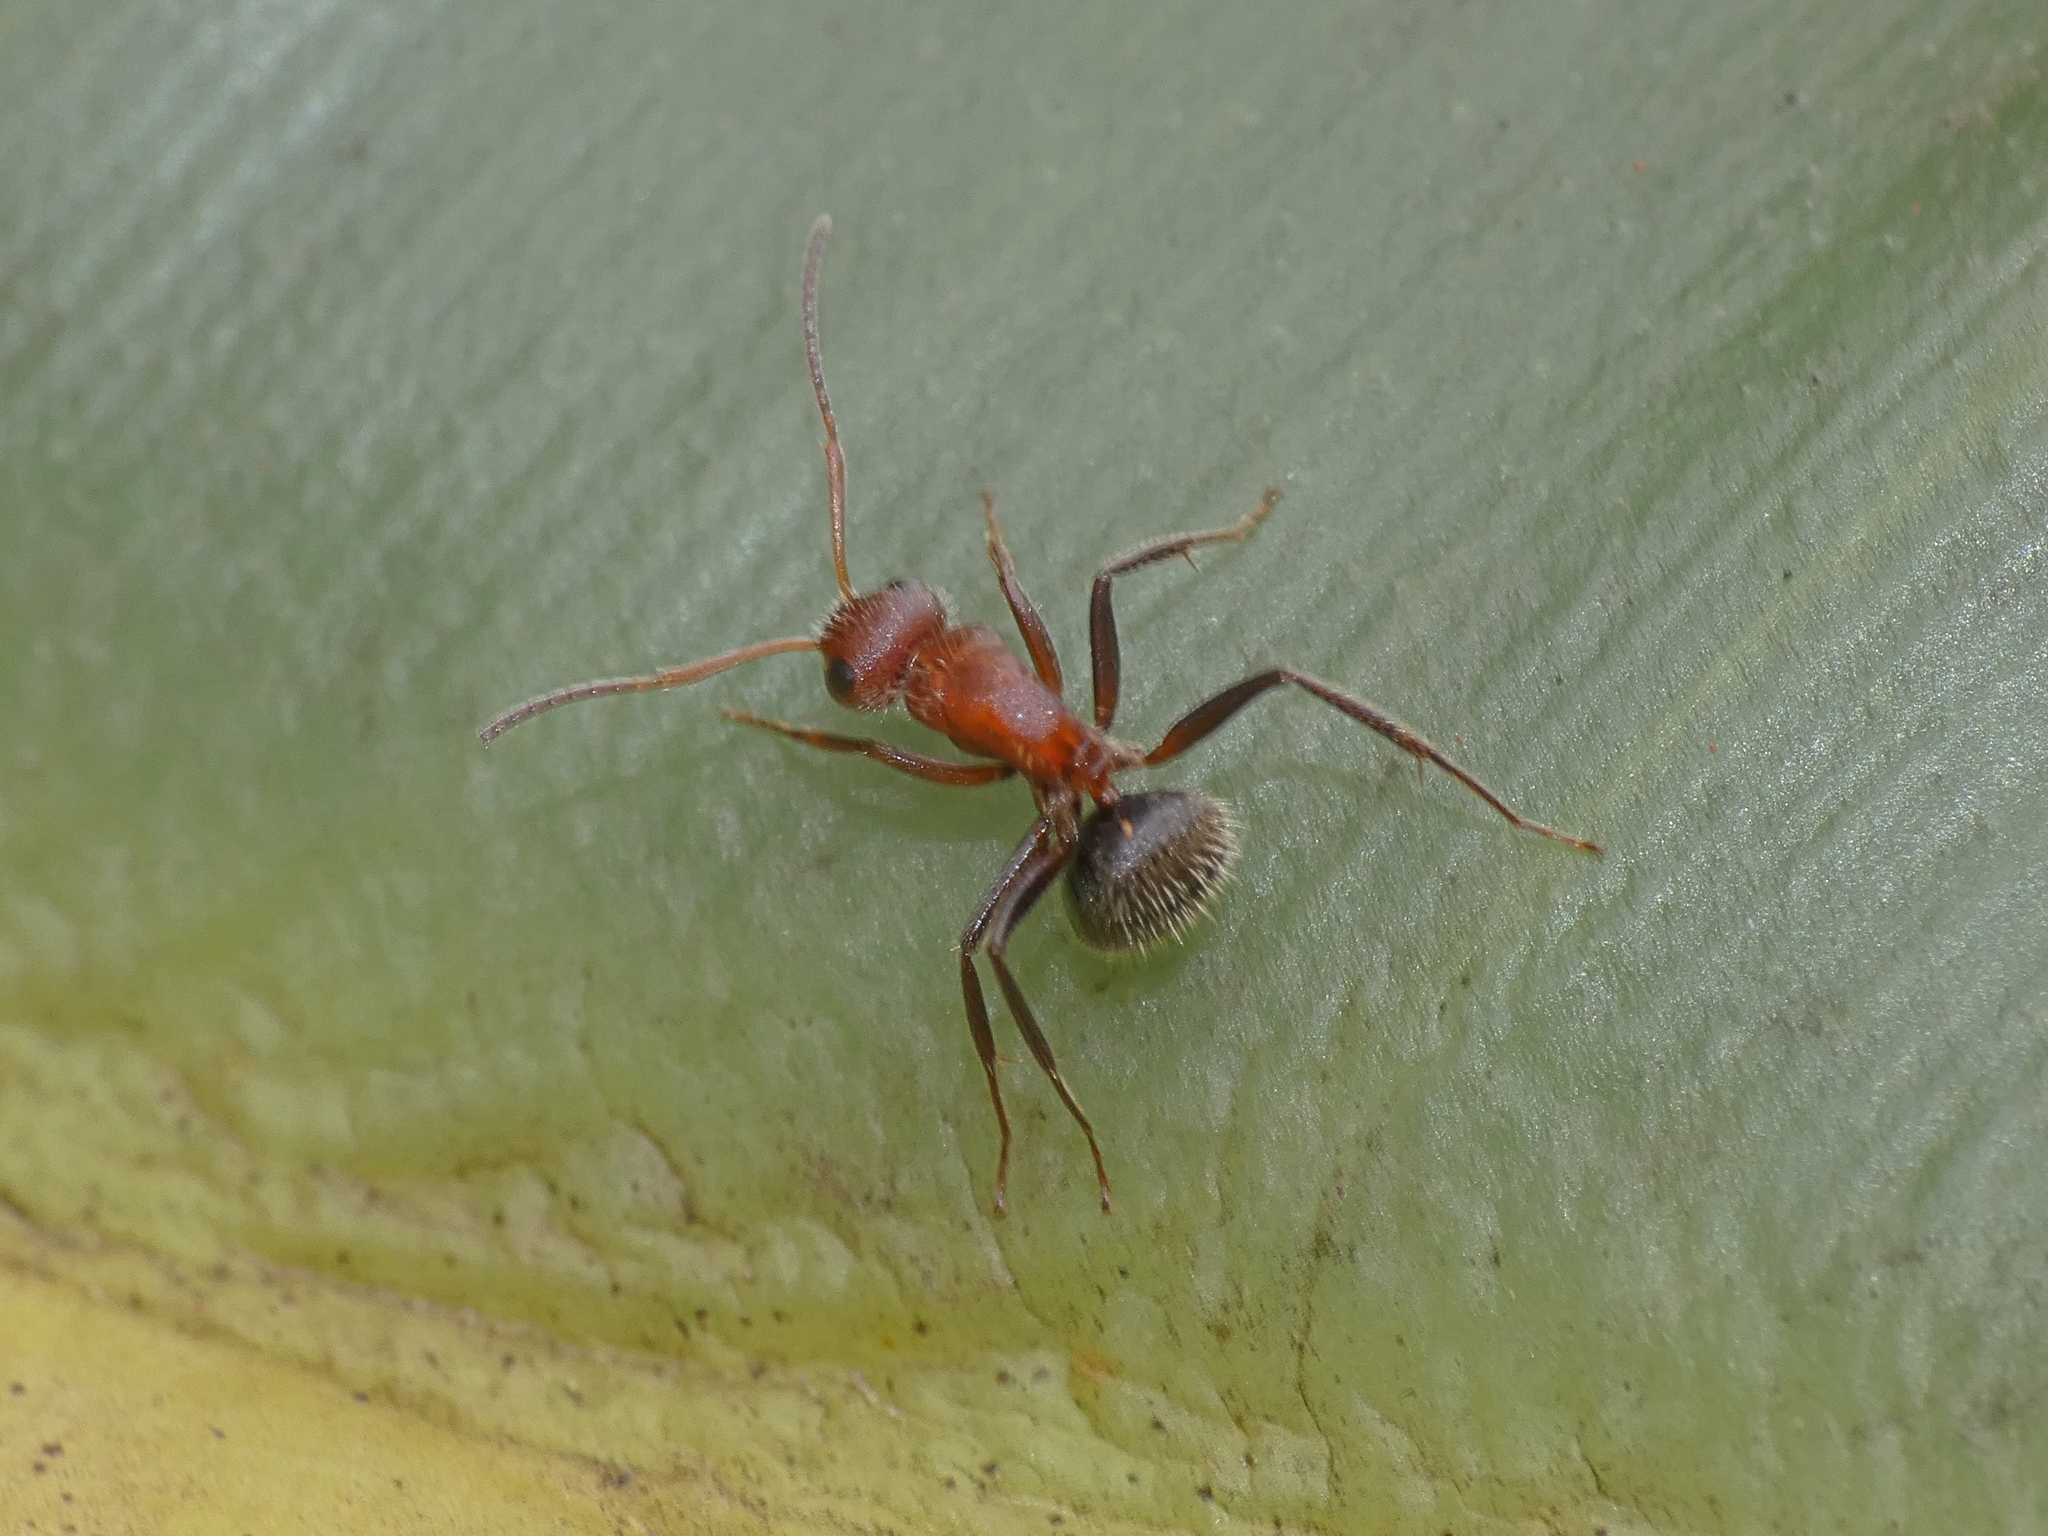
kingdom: Animalia
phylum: Arthropoda
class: Insecta
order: Hymenoptera
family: Formicidae
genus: Camponotus
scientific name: Camponotus planatus
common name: Compact carpenter ant
